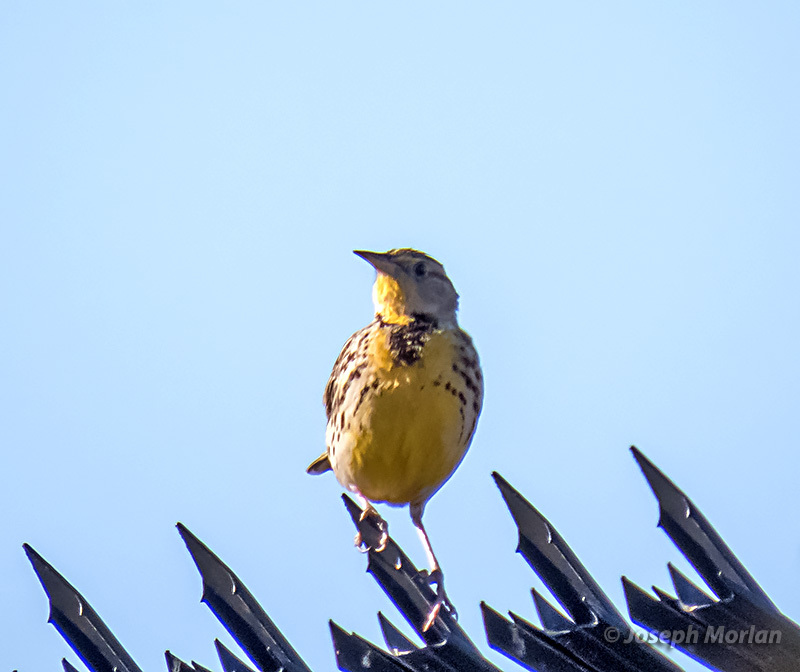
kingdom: Animalia
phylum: Chordata
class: Aves
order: Passeriformes
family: Icteridae
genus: Sturnella
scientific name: Sturnella neglecta
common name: Western meadowlark
